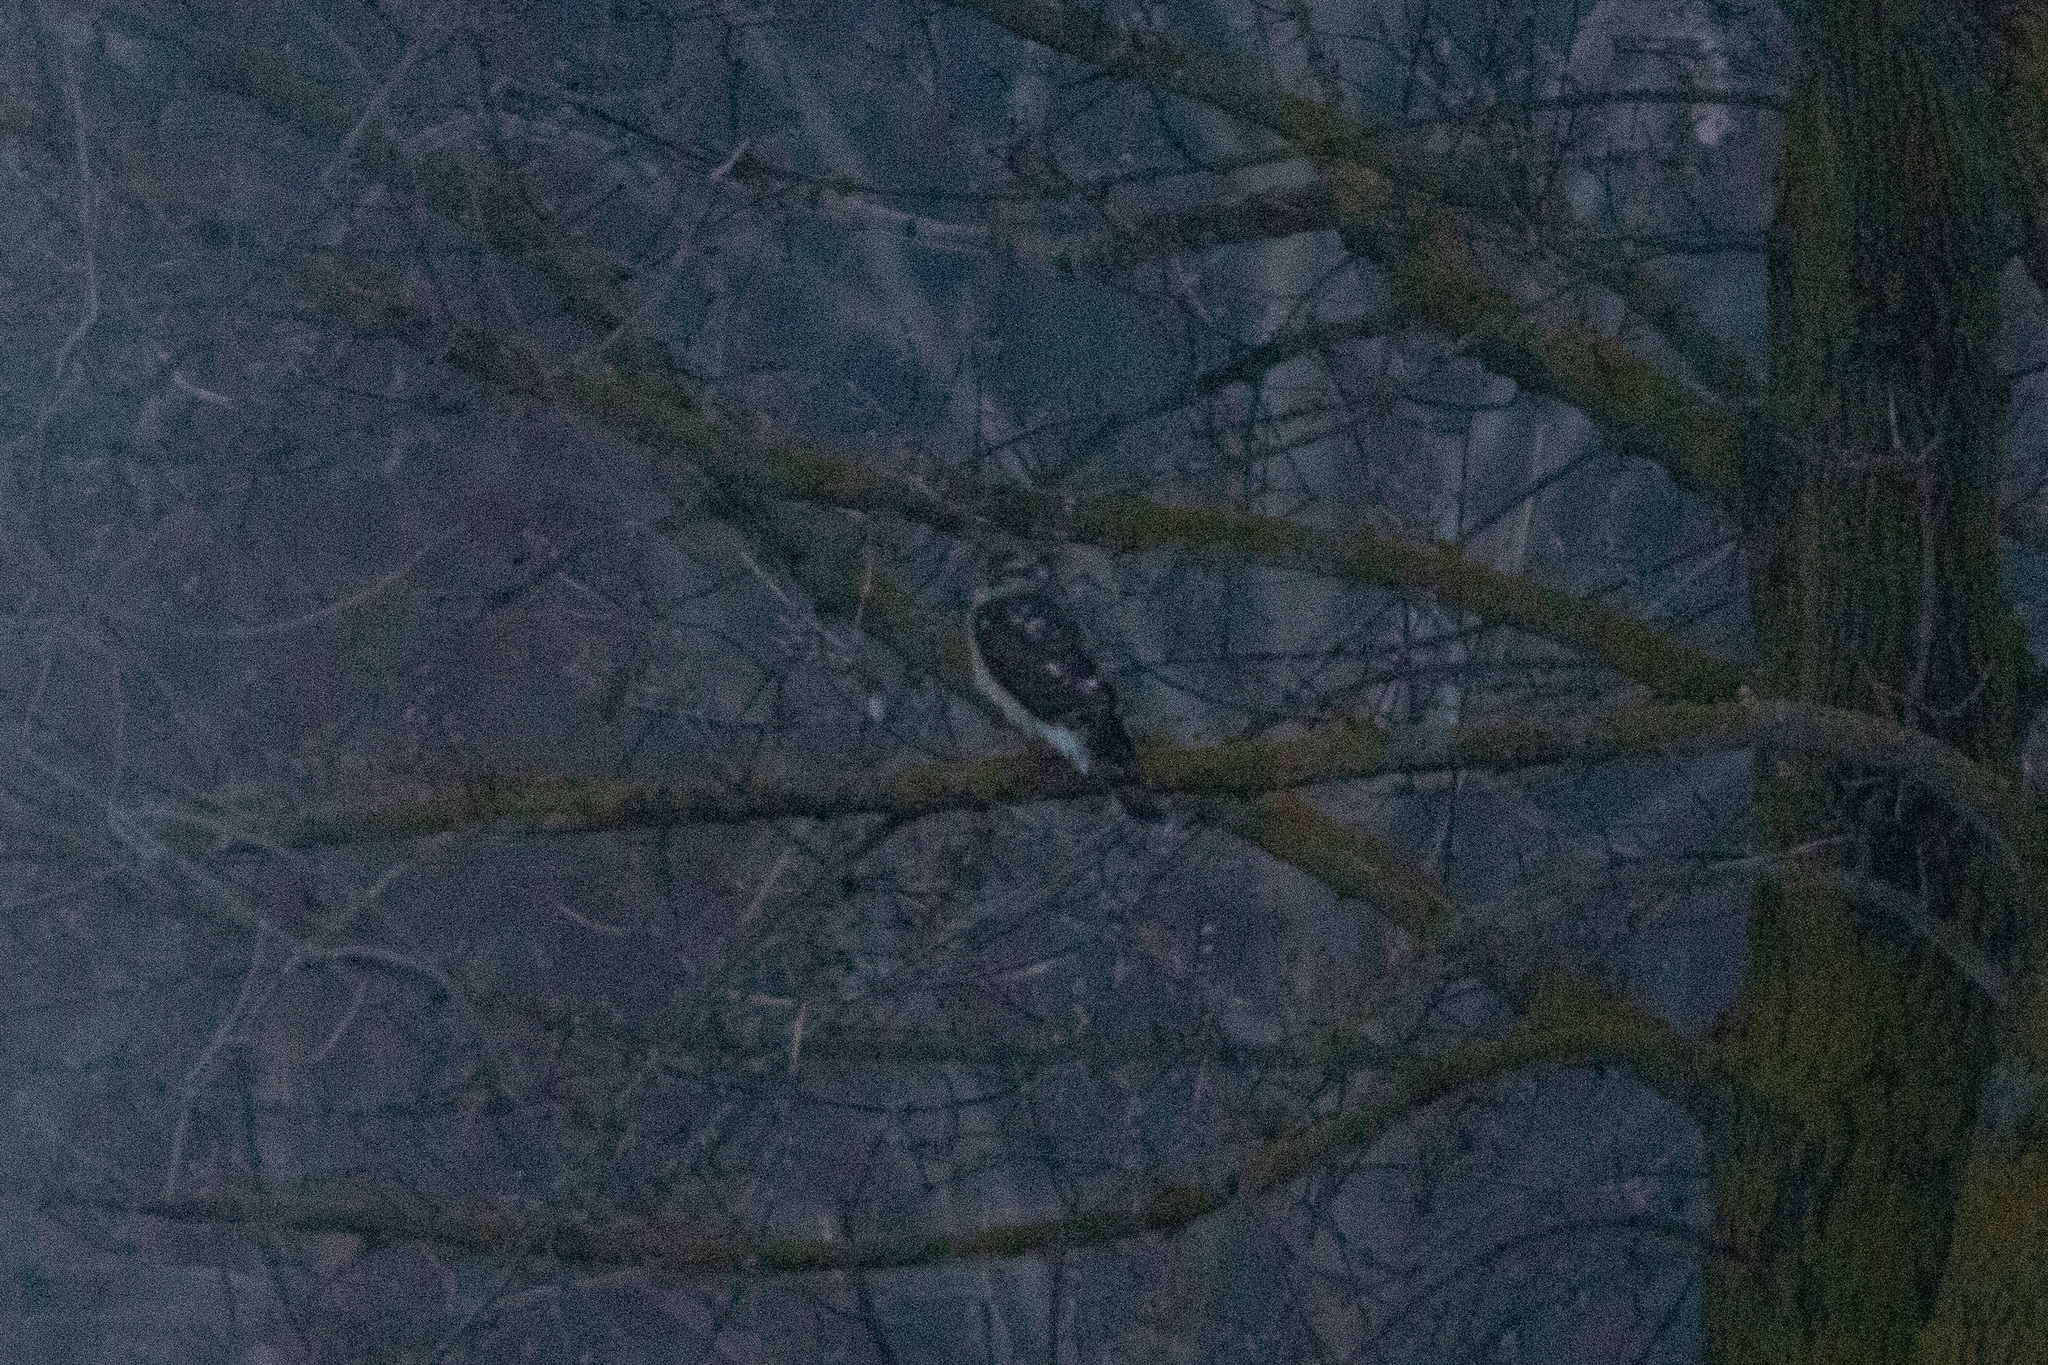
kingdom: Animalia
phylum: Chordata
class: Aves
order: Accipitriformes
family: Accipitridae
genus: Accipiter
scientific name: Accipiter nisus
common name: Eurasian sparrowhawk
